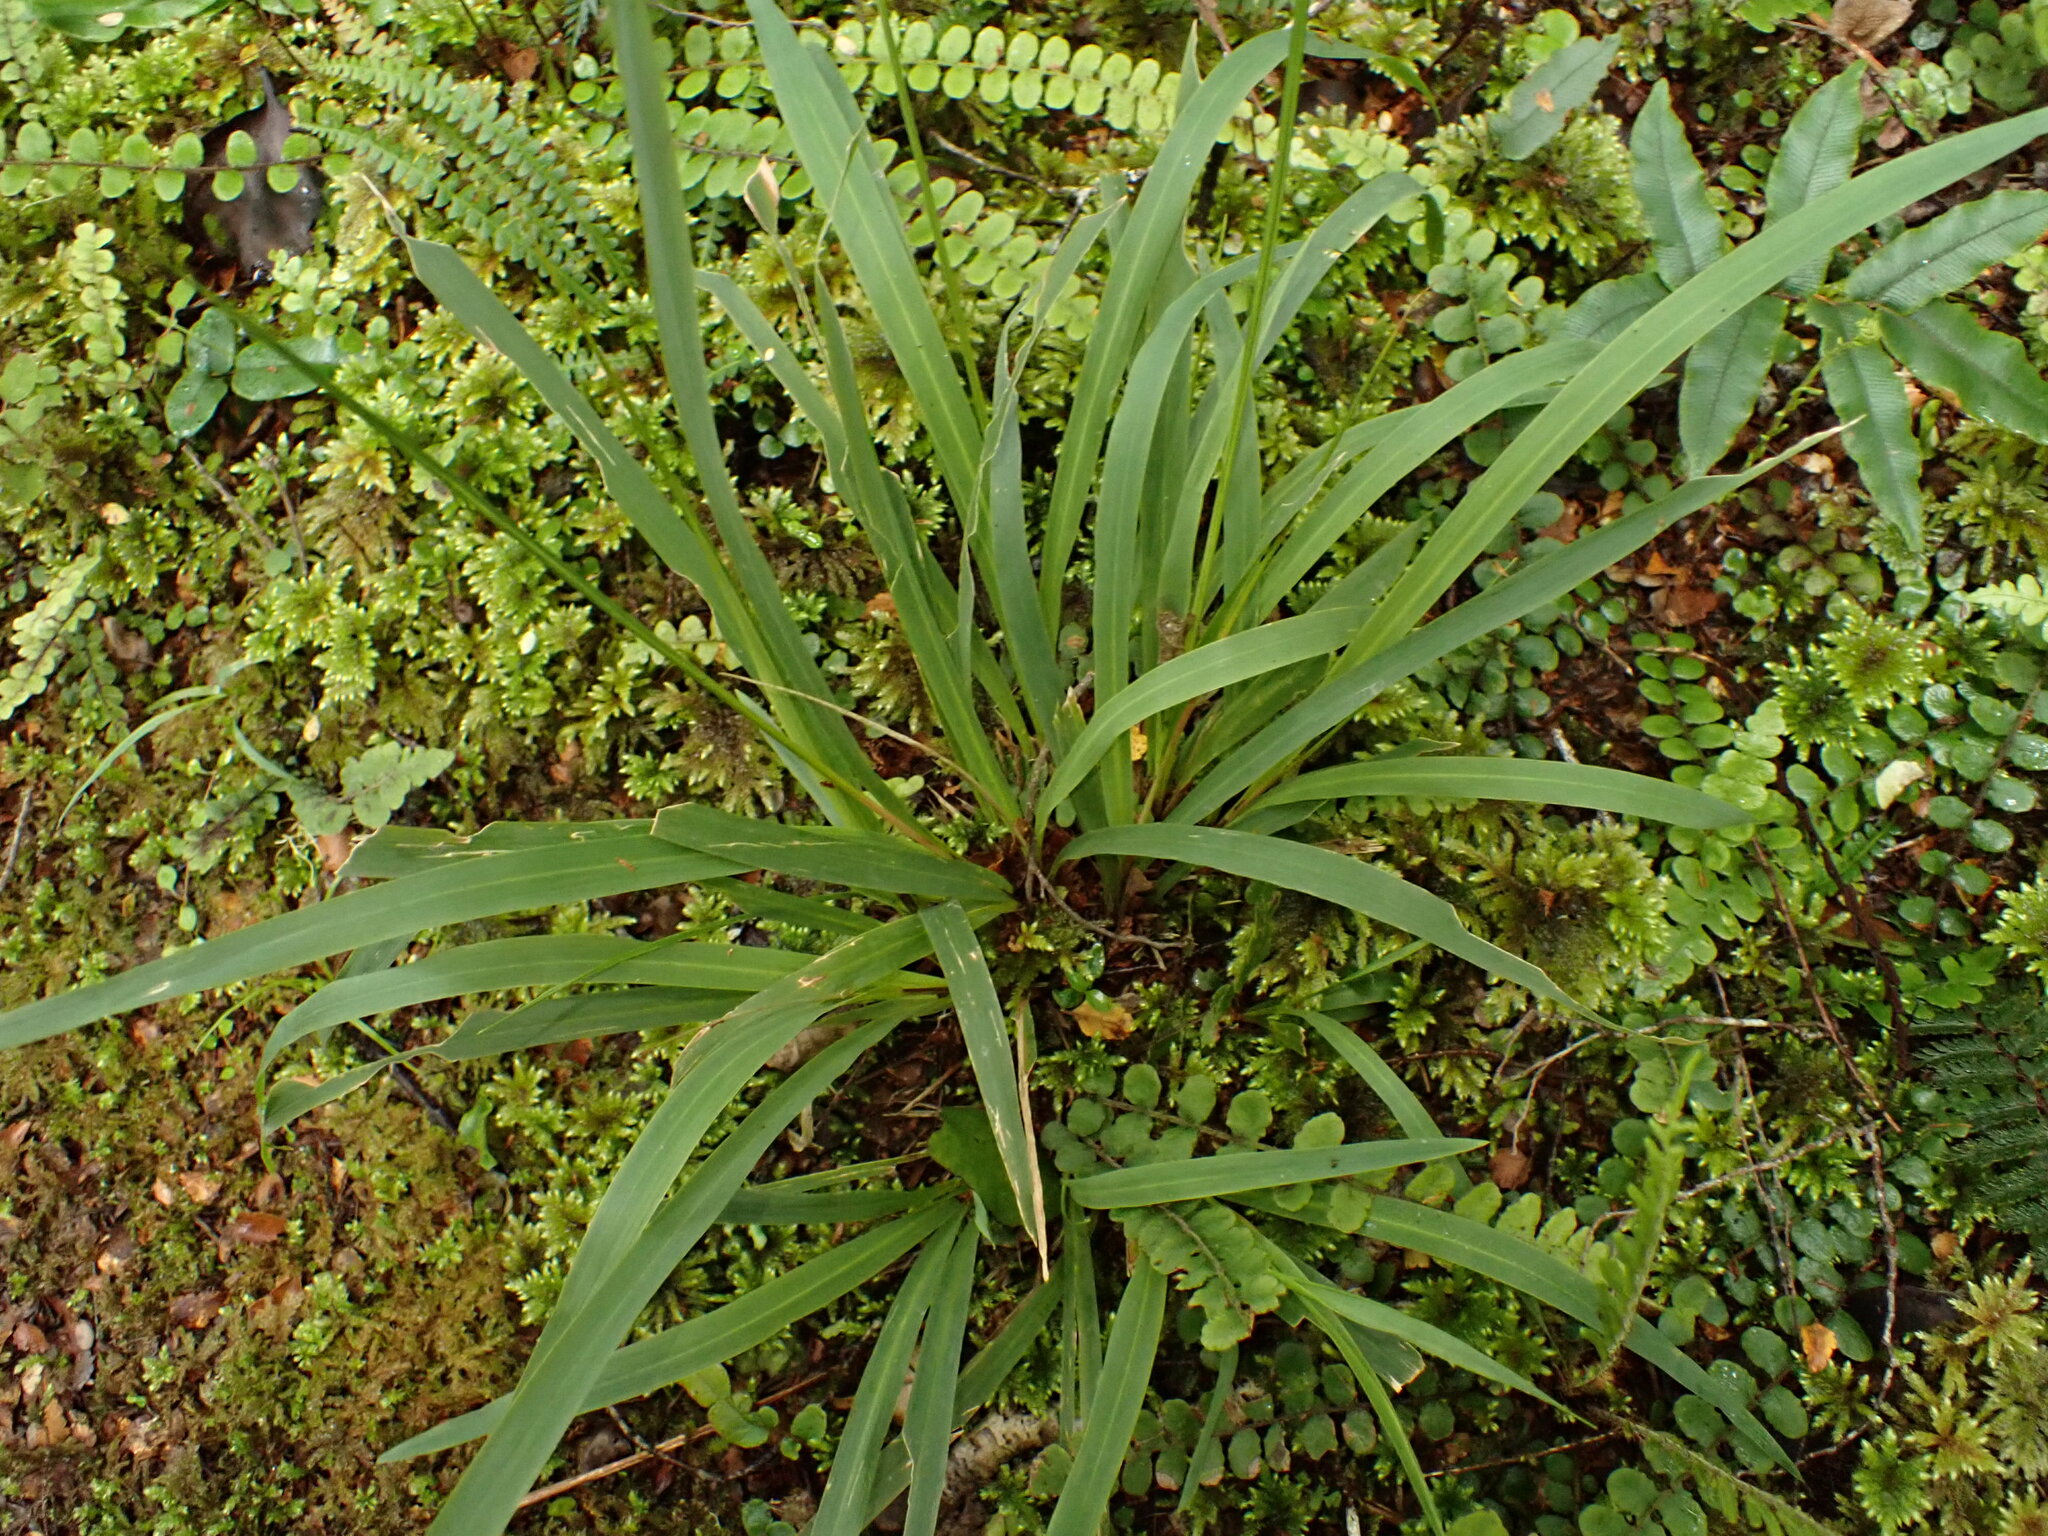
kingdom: Plantae
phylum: Tracheophyta
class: Liliopsida
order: Poales
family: Poaceae
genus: Ehrharta
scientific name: Ehrharta diplax
